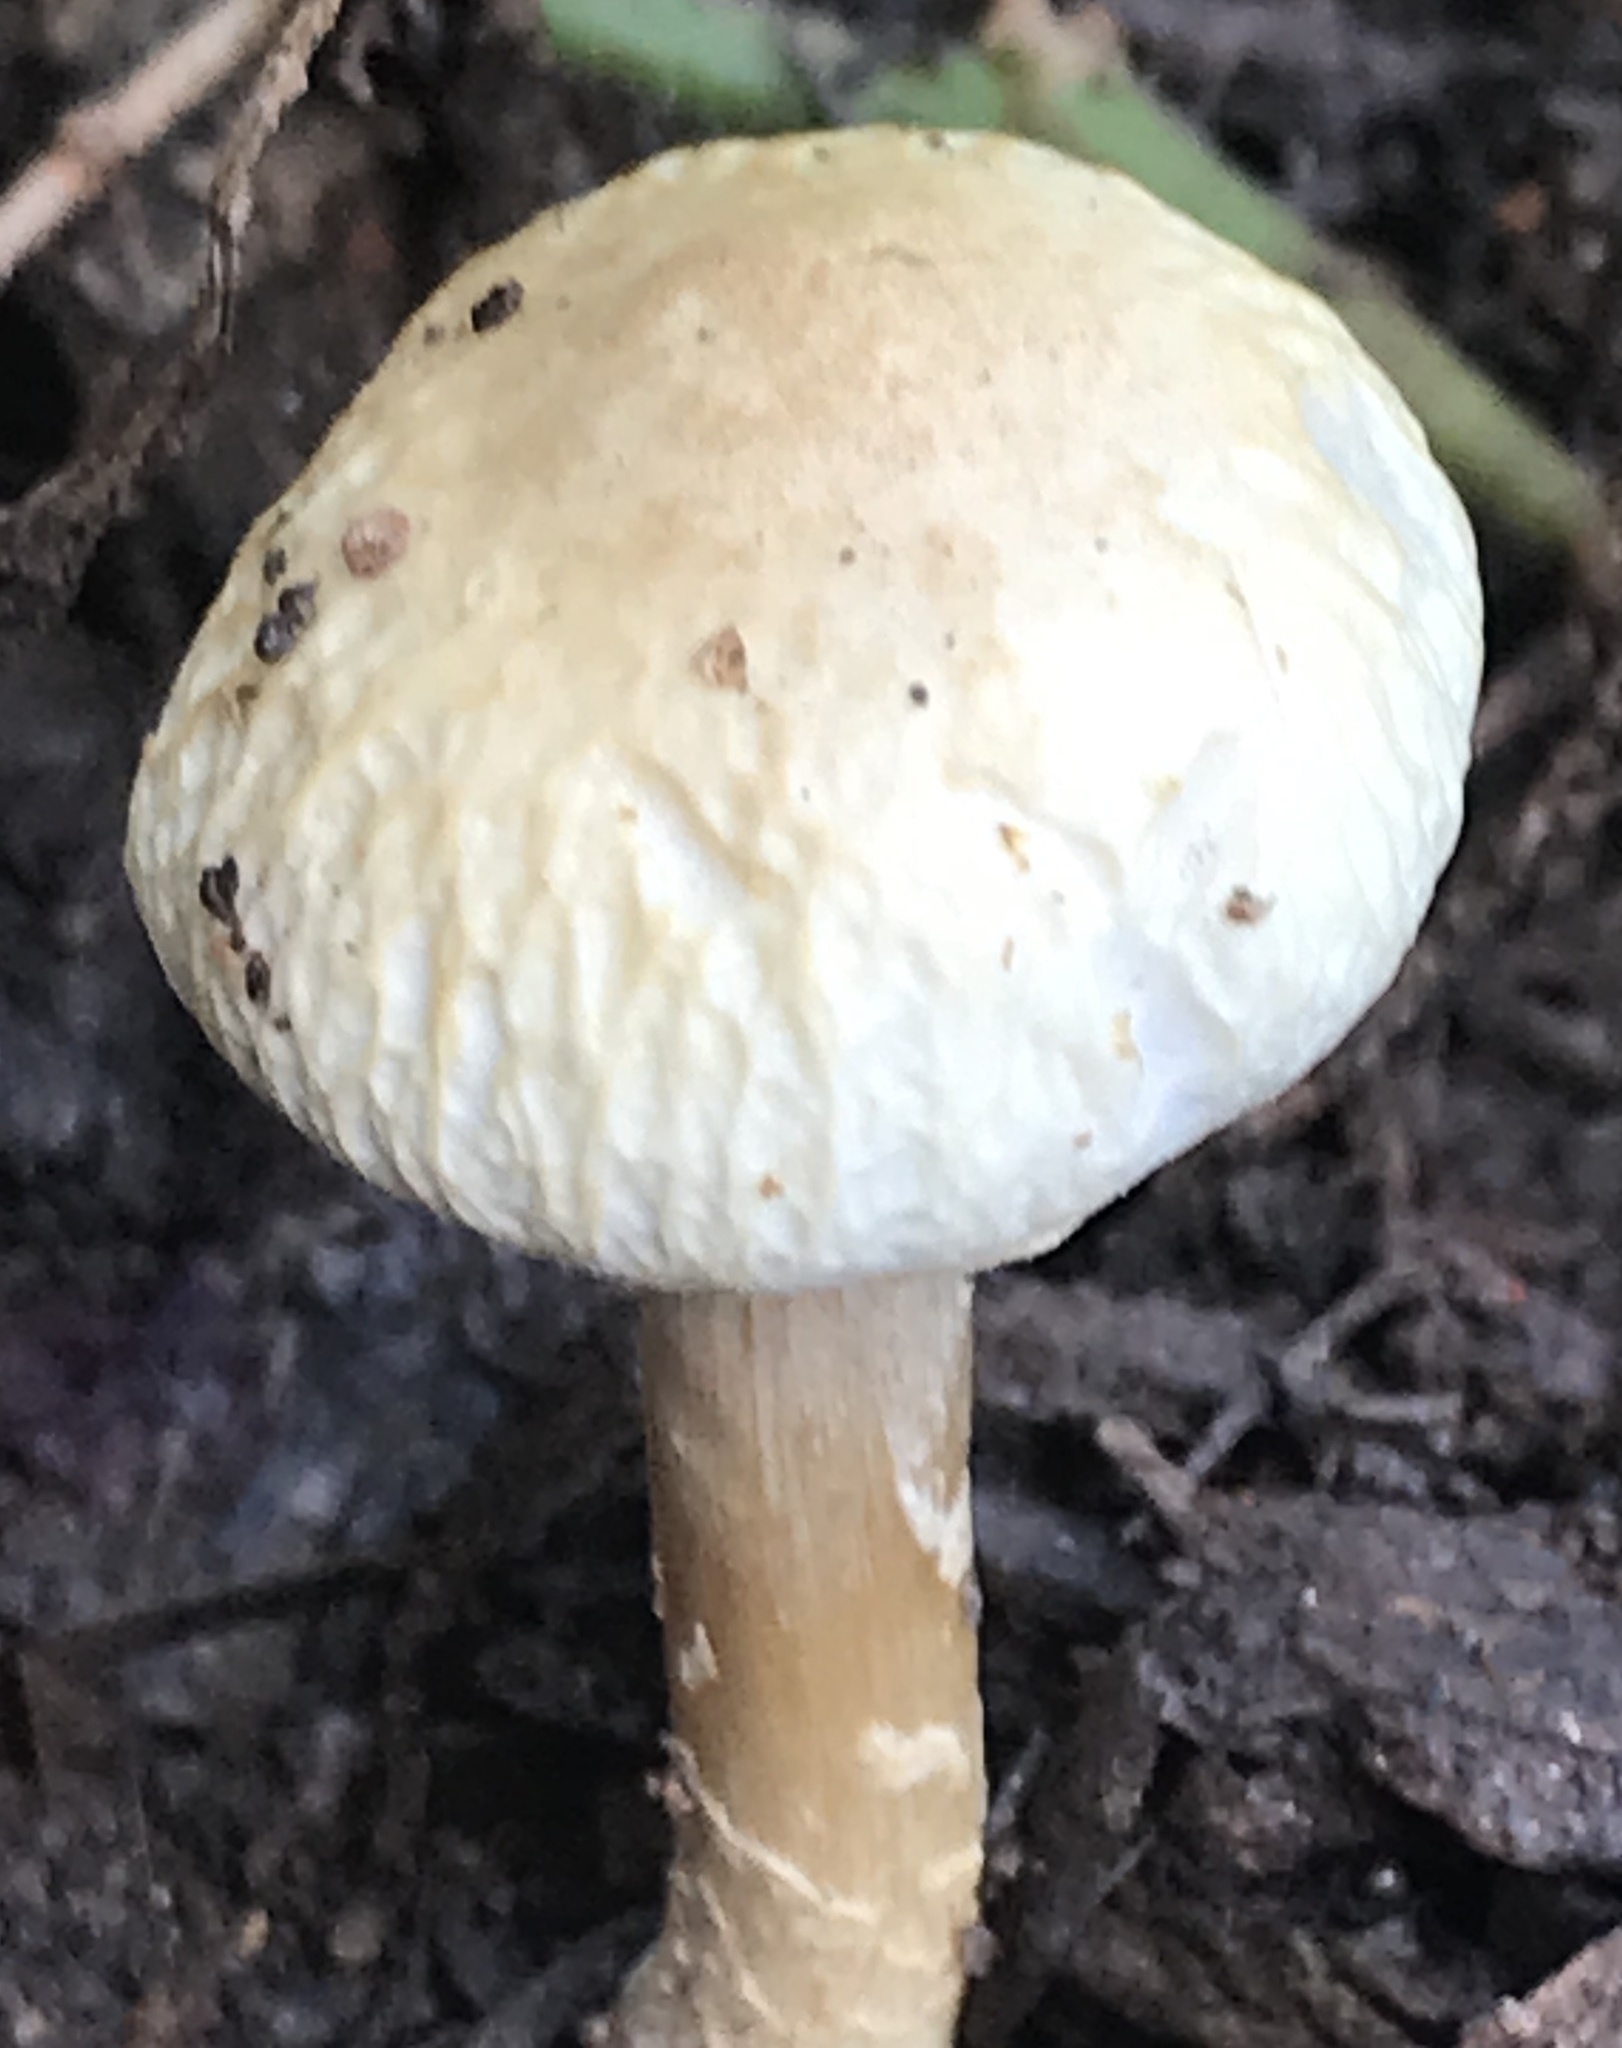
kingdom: Fungi
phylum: Basidiomycota
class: Agaricomycetes
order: Agaricales
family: Strophariaceae
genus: Agrocybe
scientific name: Agrocybe molesta
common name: Bearded fieldcap
